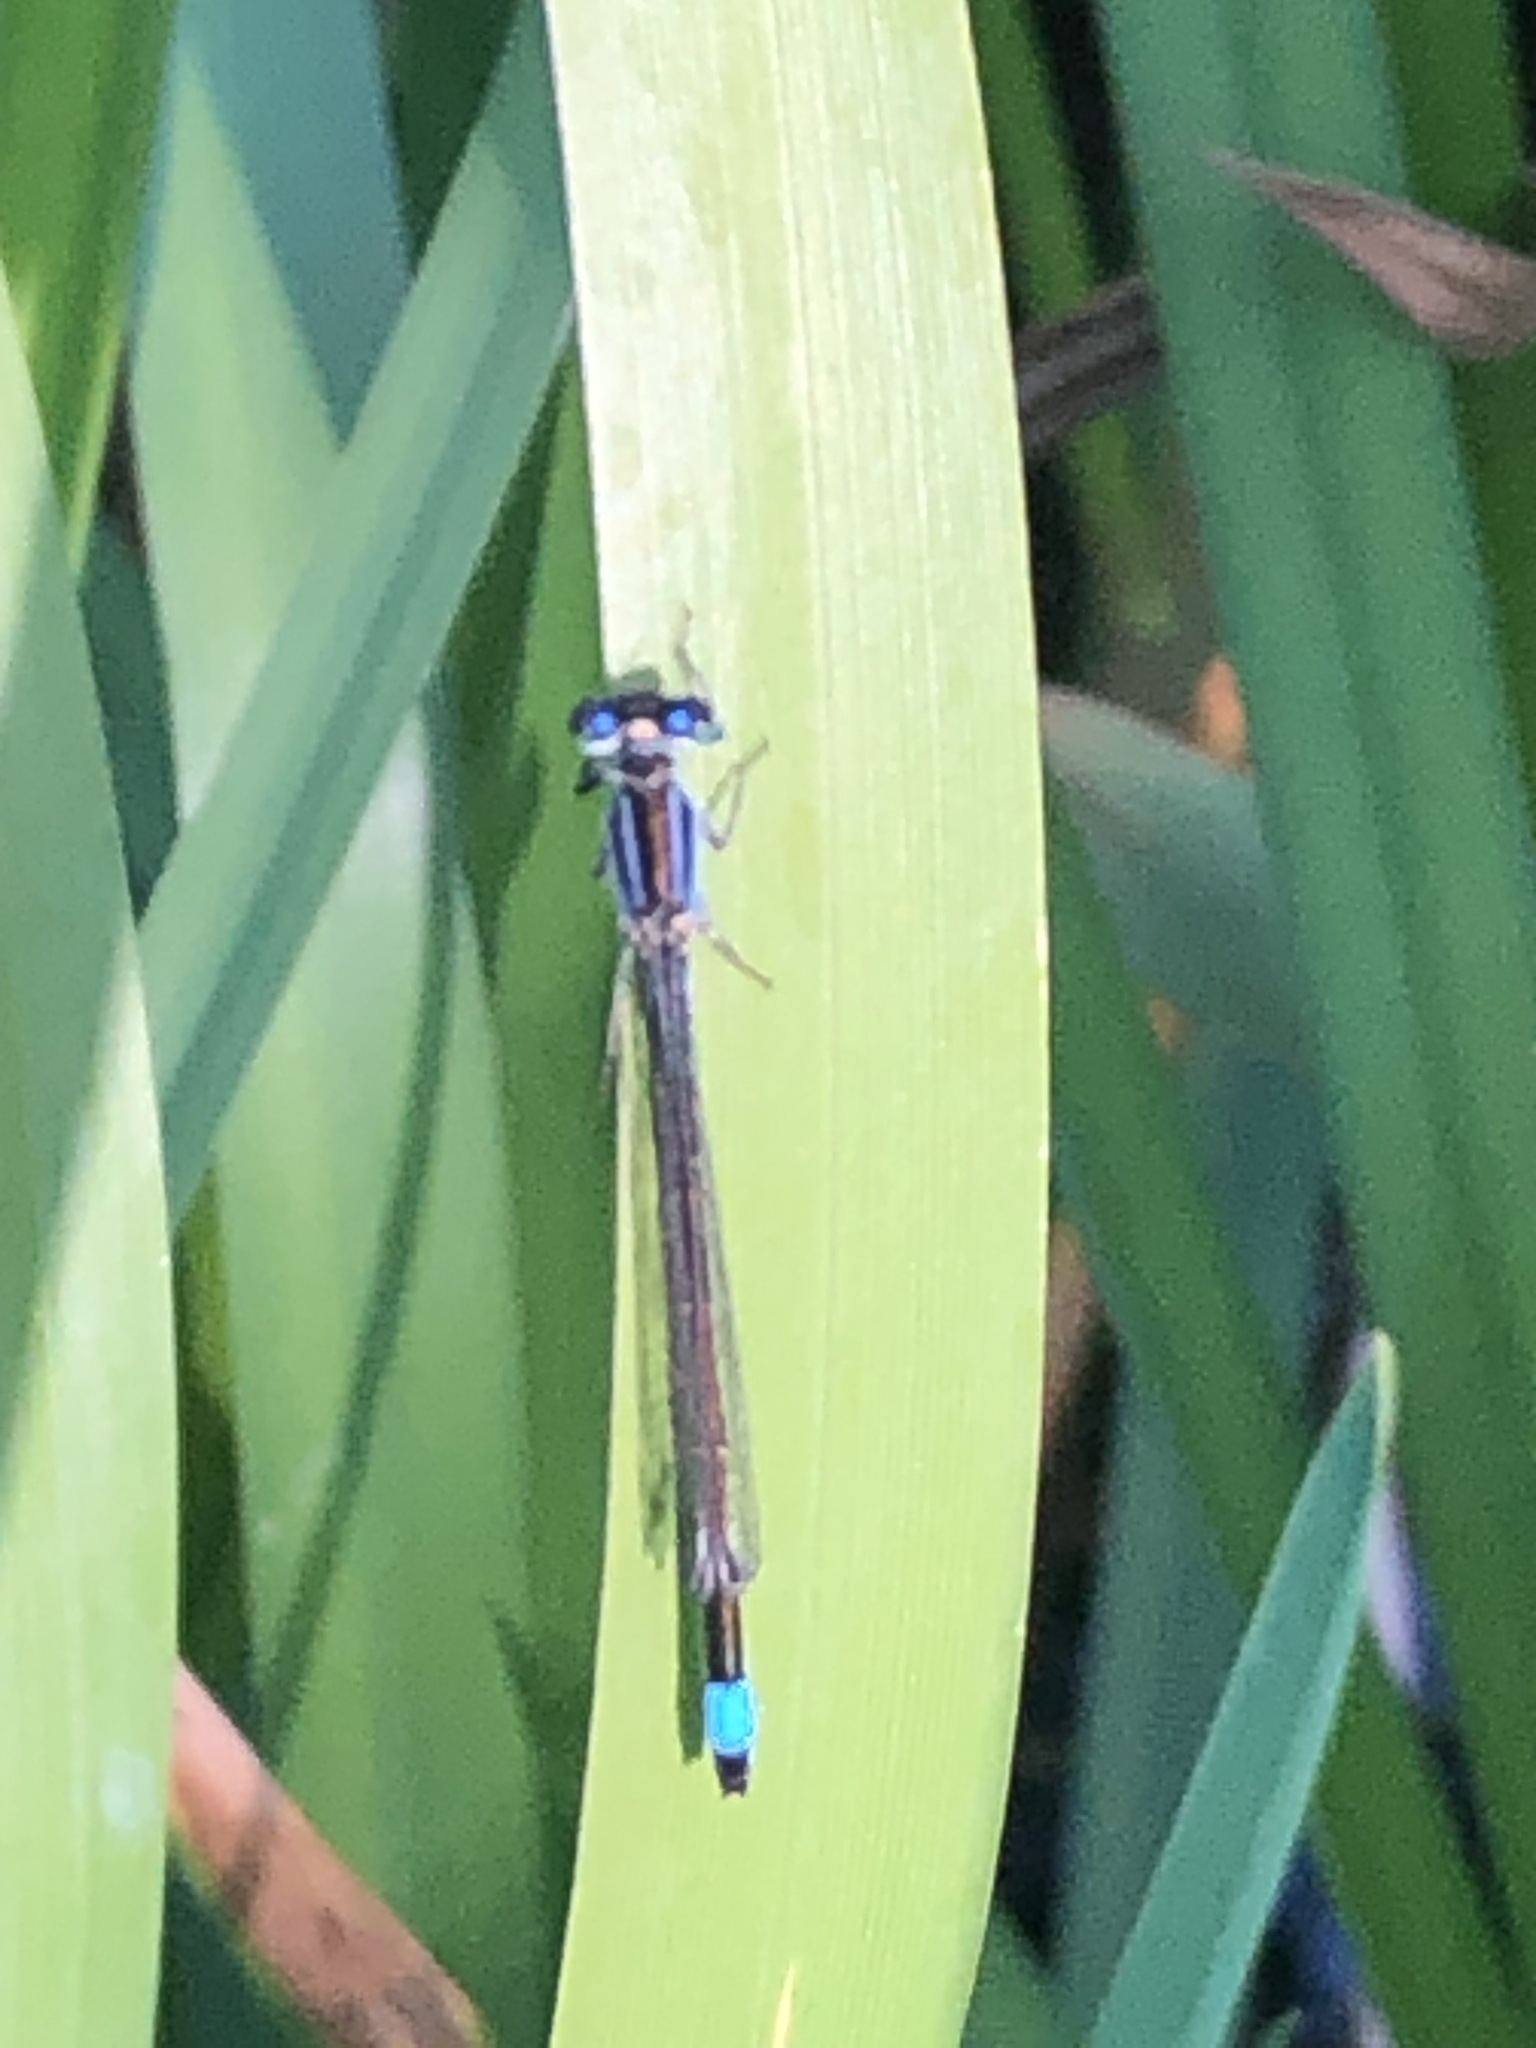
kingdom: Animalia
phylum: Arthropoda
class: Insecta
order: Odonata
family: Coenagrionidae
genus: Ischnura
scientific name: Ischnura elegans
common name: Blue-tailed damselfly
